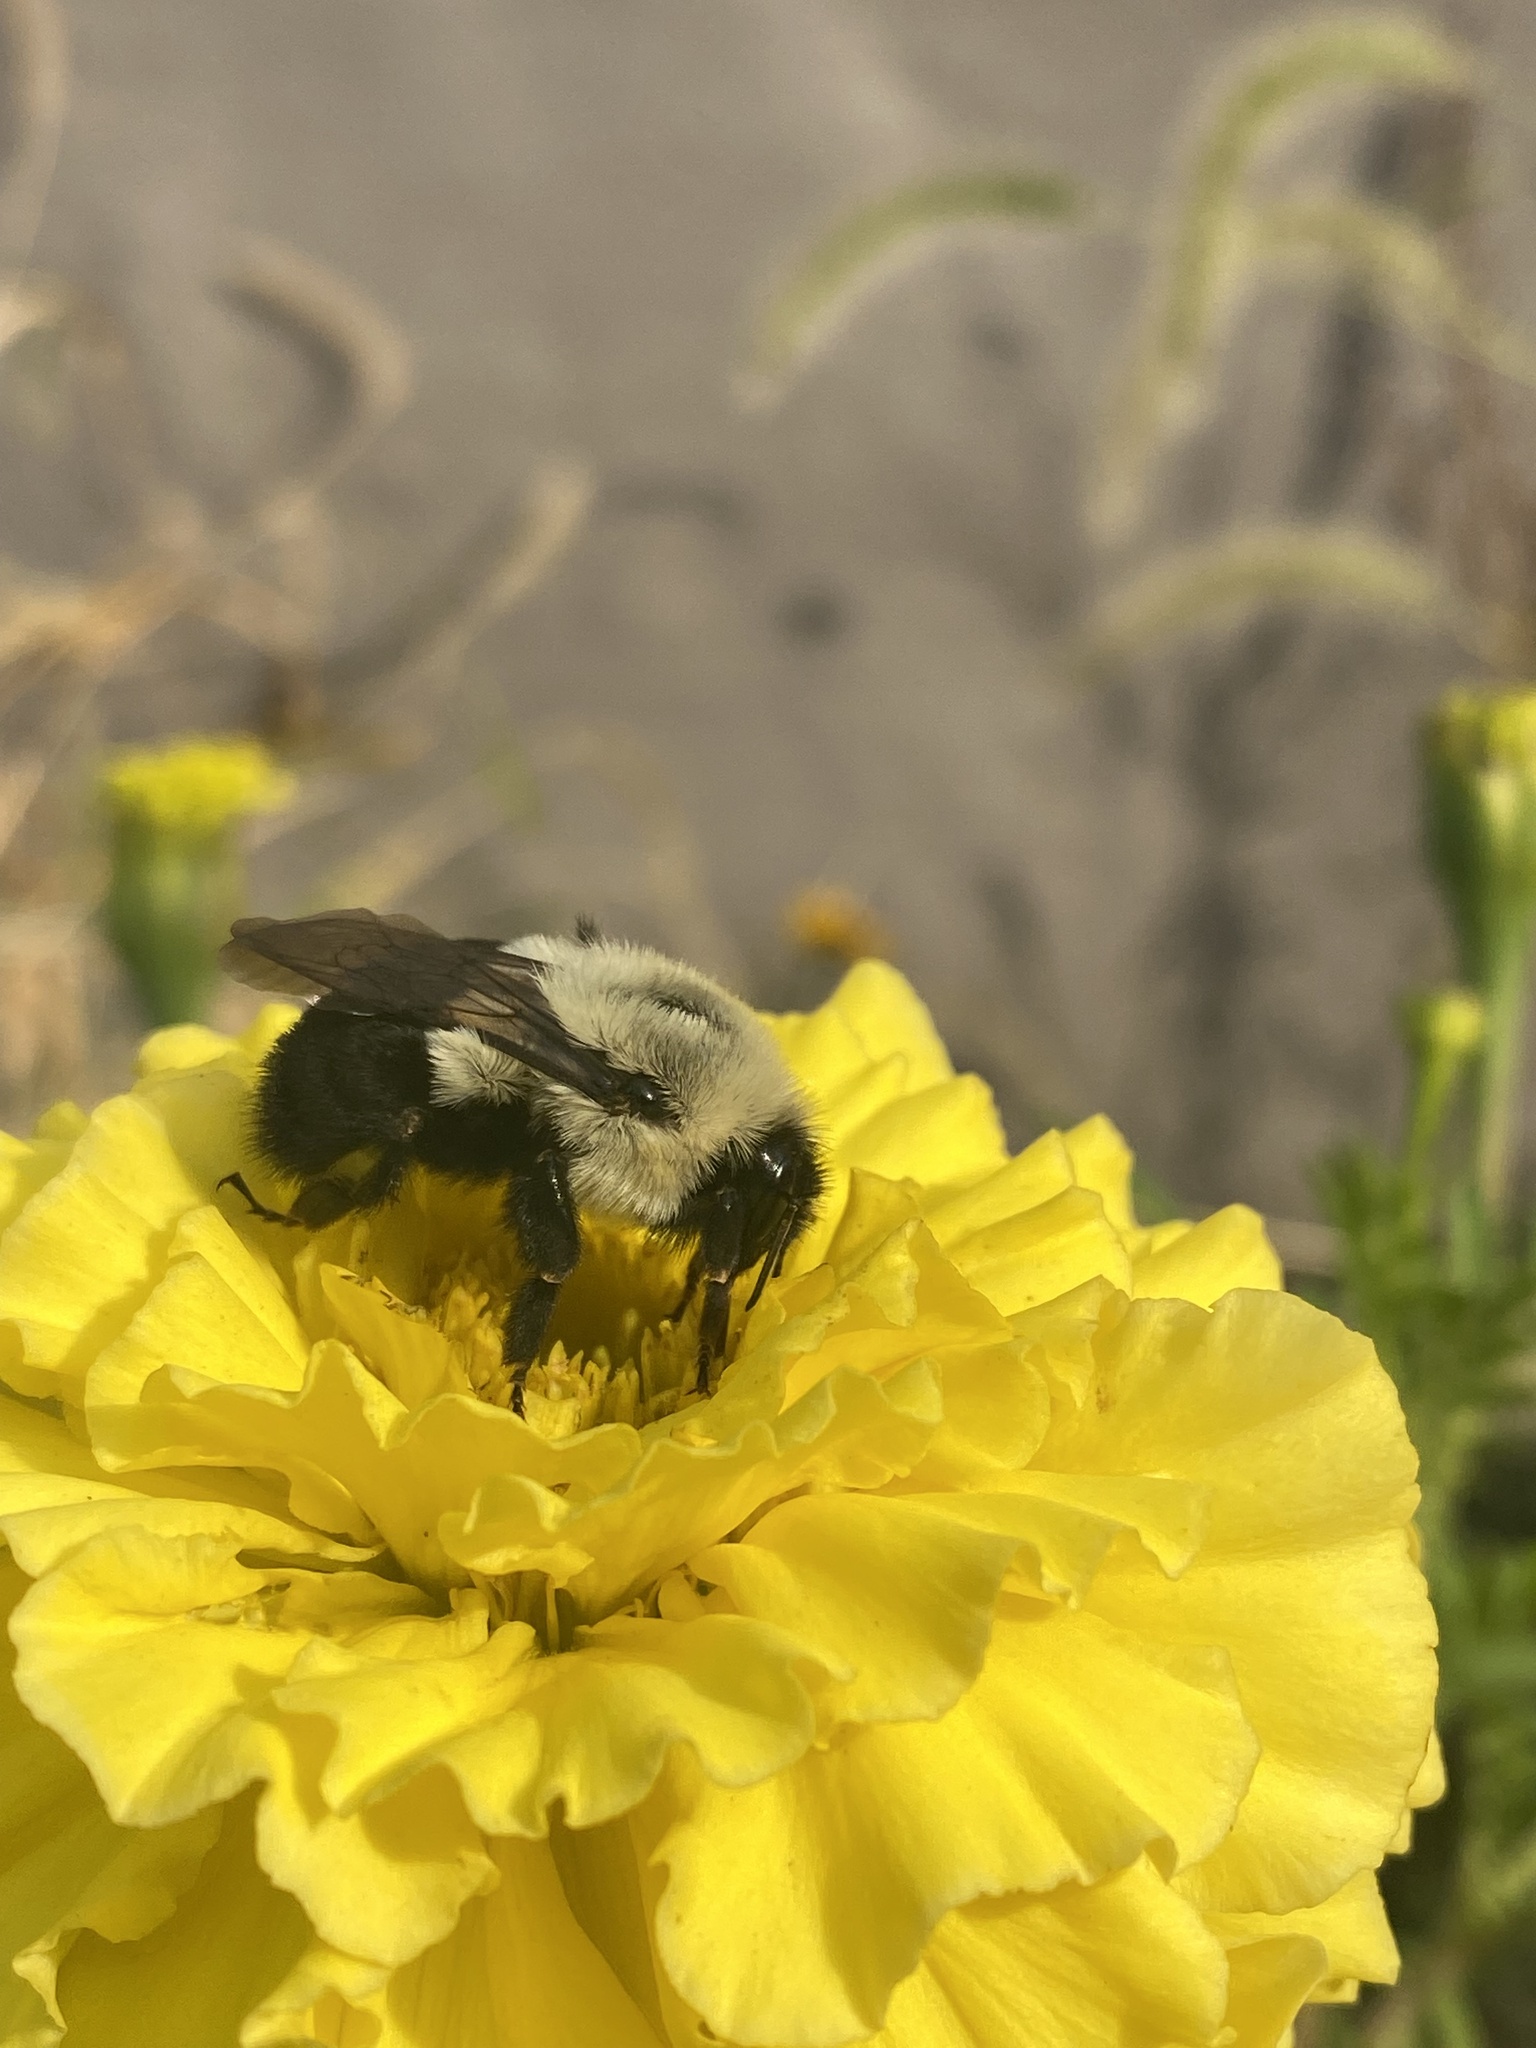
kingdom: Animalia
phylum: Arthropoda
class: Insecta
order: Hymenoptera
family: Apidae
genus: Bombus
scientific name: Bombus impatiens
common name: Common eastern bumble bee
